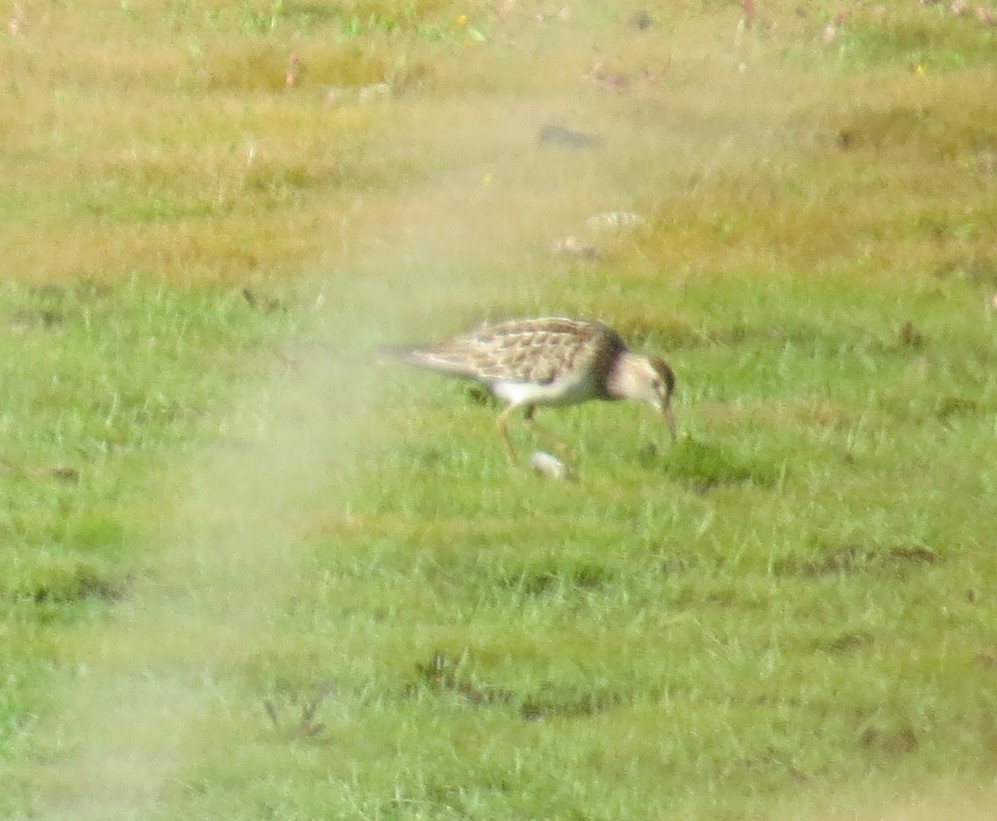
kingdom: Animalia
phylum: Chordata
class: Aves
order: Charadriiformes
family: Scolopacidae
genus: Calidris
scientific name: Calidris melanotos
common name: Pectoral sandpiper
